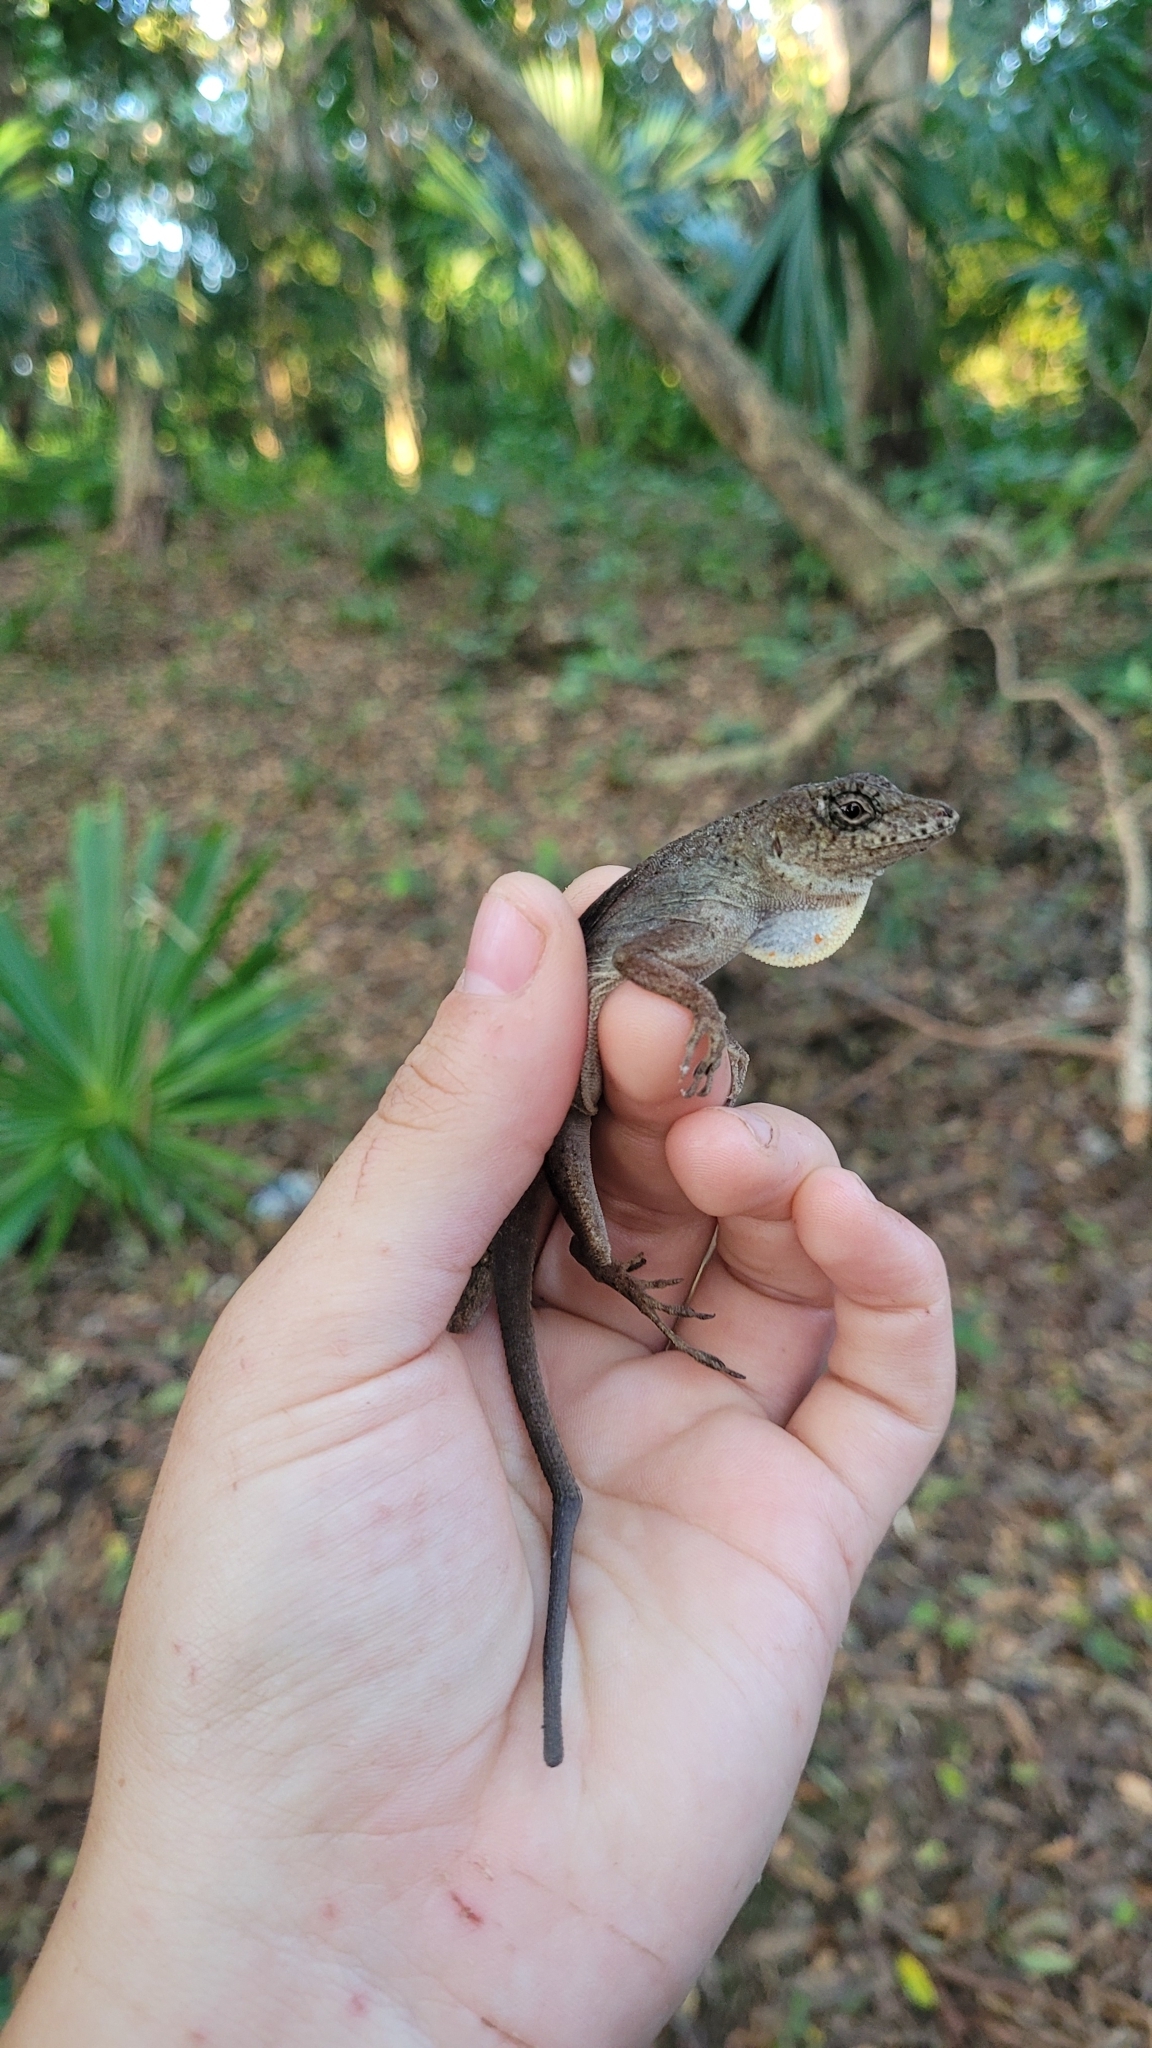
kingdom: Animalia
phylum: Chordata
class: Squamata
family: Dactyloidae
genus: Anolis
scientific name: Anolis bicaorum
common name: Bay islands anole
